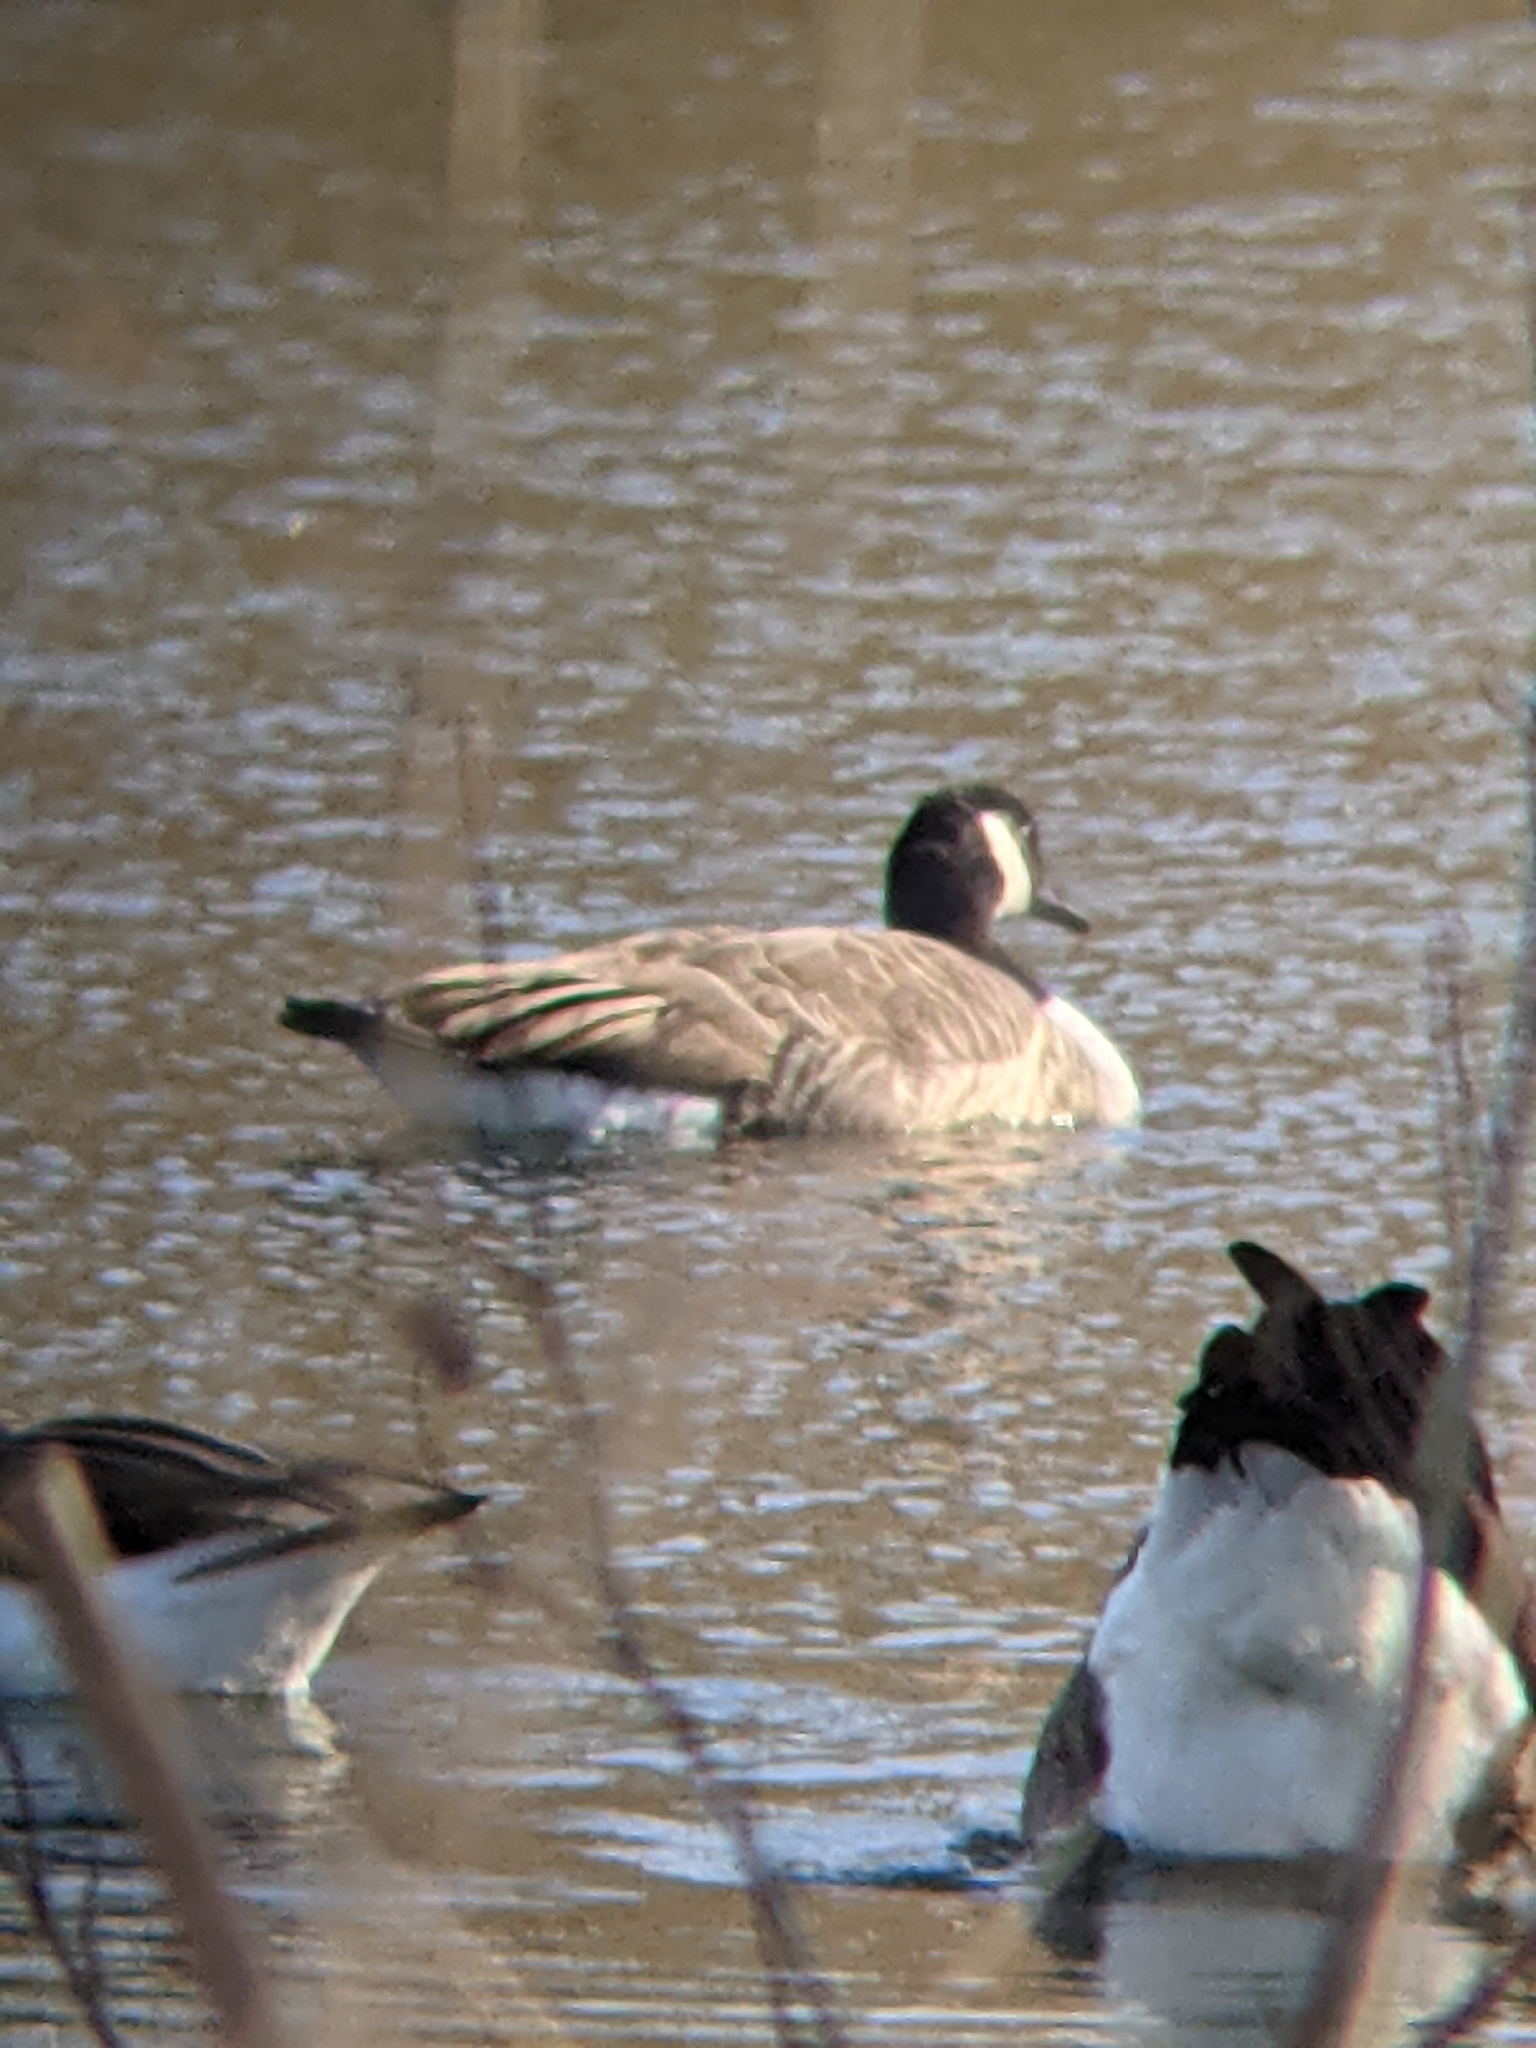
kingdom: Animalia
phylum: Chordata
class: Aves
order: Anseriformes
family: Anatidae
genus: Branta
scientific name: Branta canadensis
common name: Canada goose
